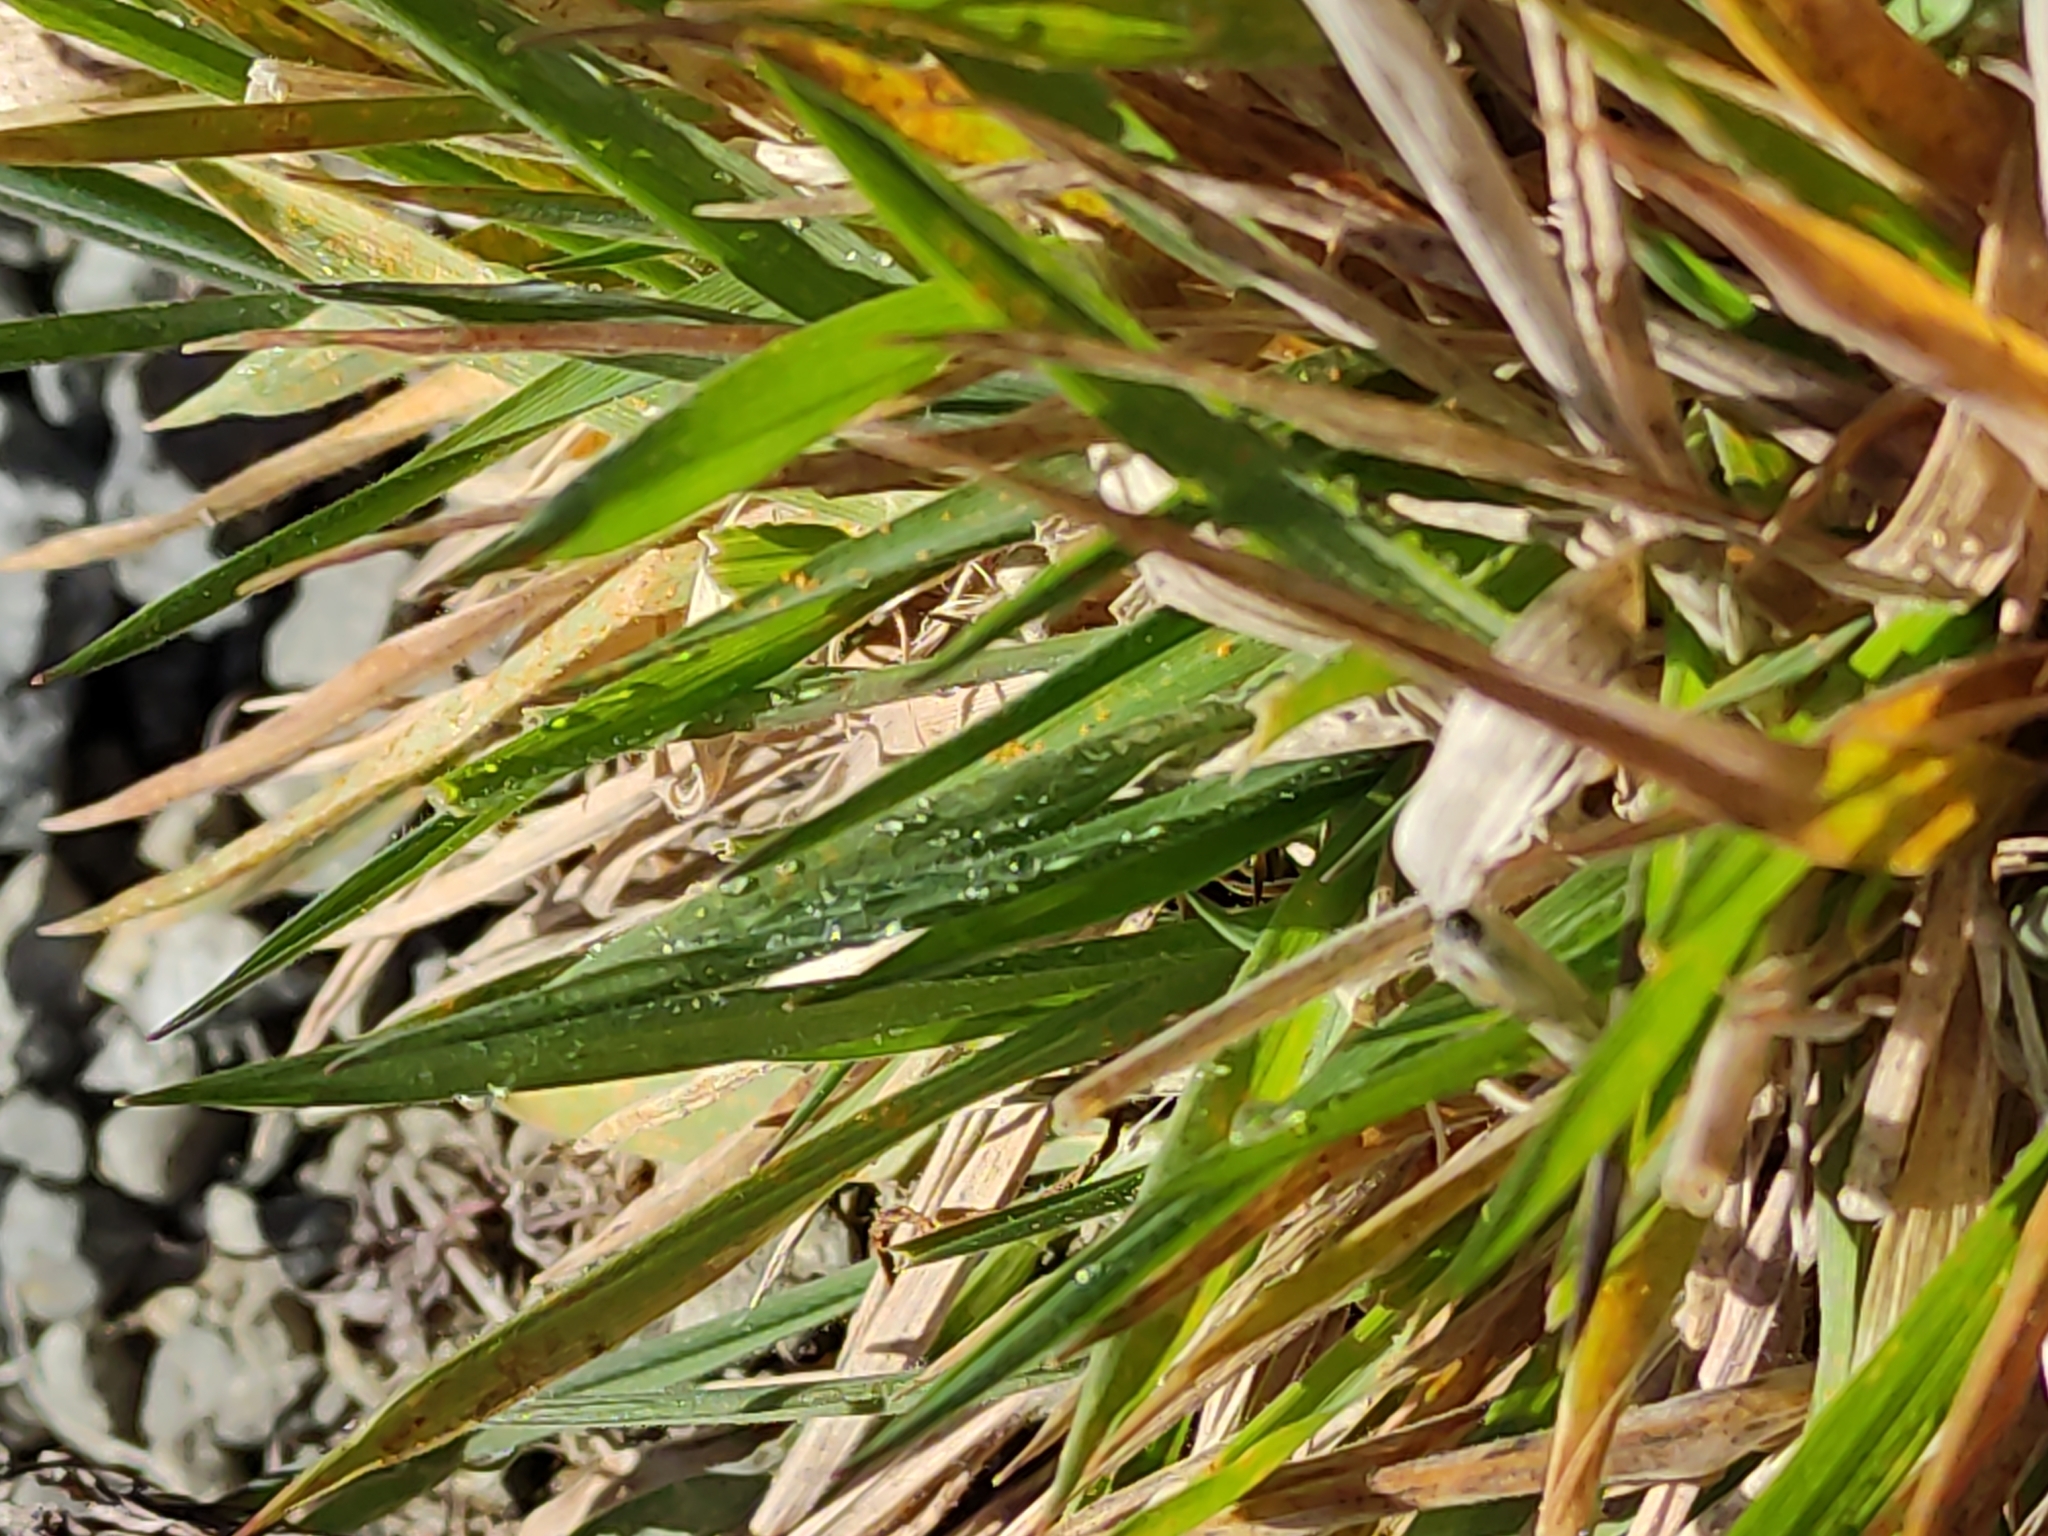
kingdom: Plantae
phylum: Tracheophyta
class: Liliopsida
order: Poales
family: Poaceae
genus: Holcus
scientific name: Holcus lanatus
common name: Yorkshire-fog
